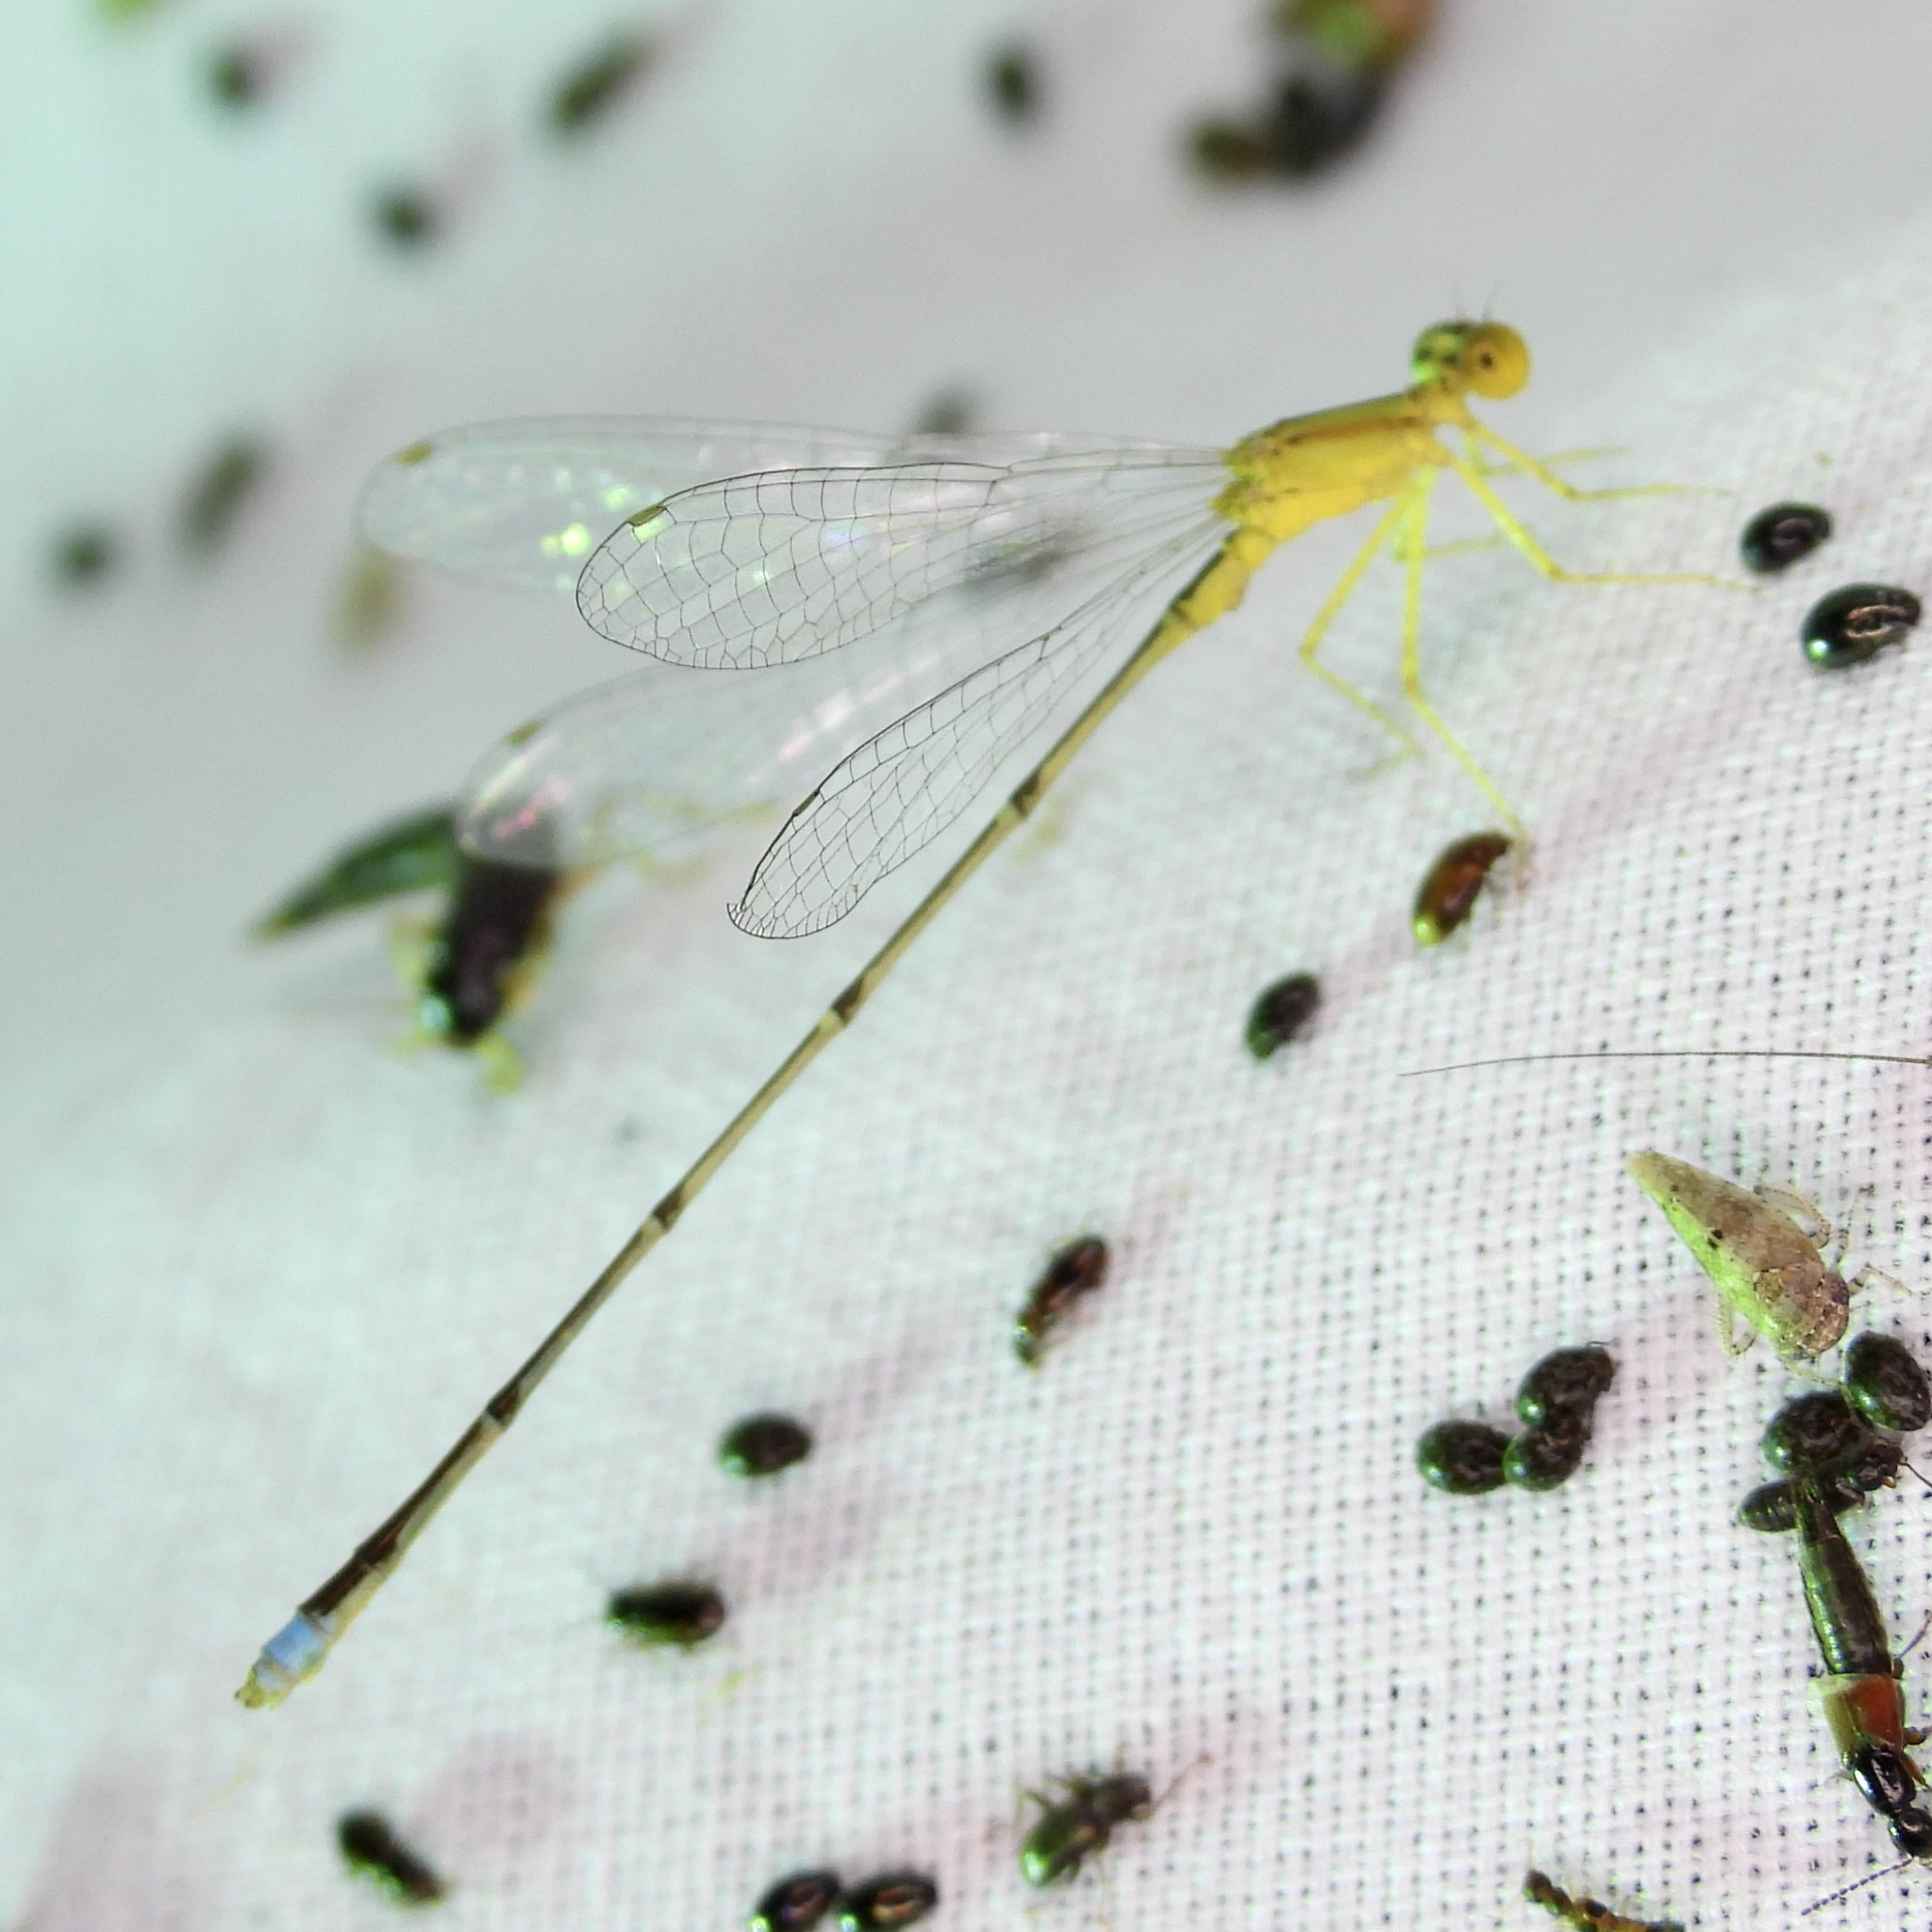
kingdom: Animalia
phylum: Arthropoda
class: Insecta
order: Odonata
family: Coenagrionidae
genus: Enallagma
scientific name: Enallagma vesperum
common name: Vesper bluet
